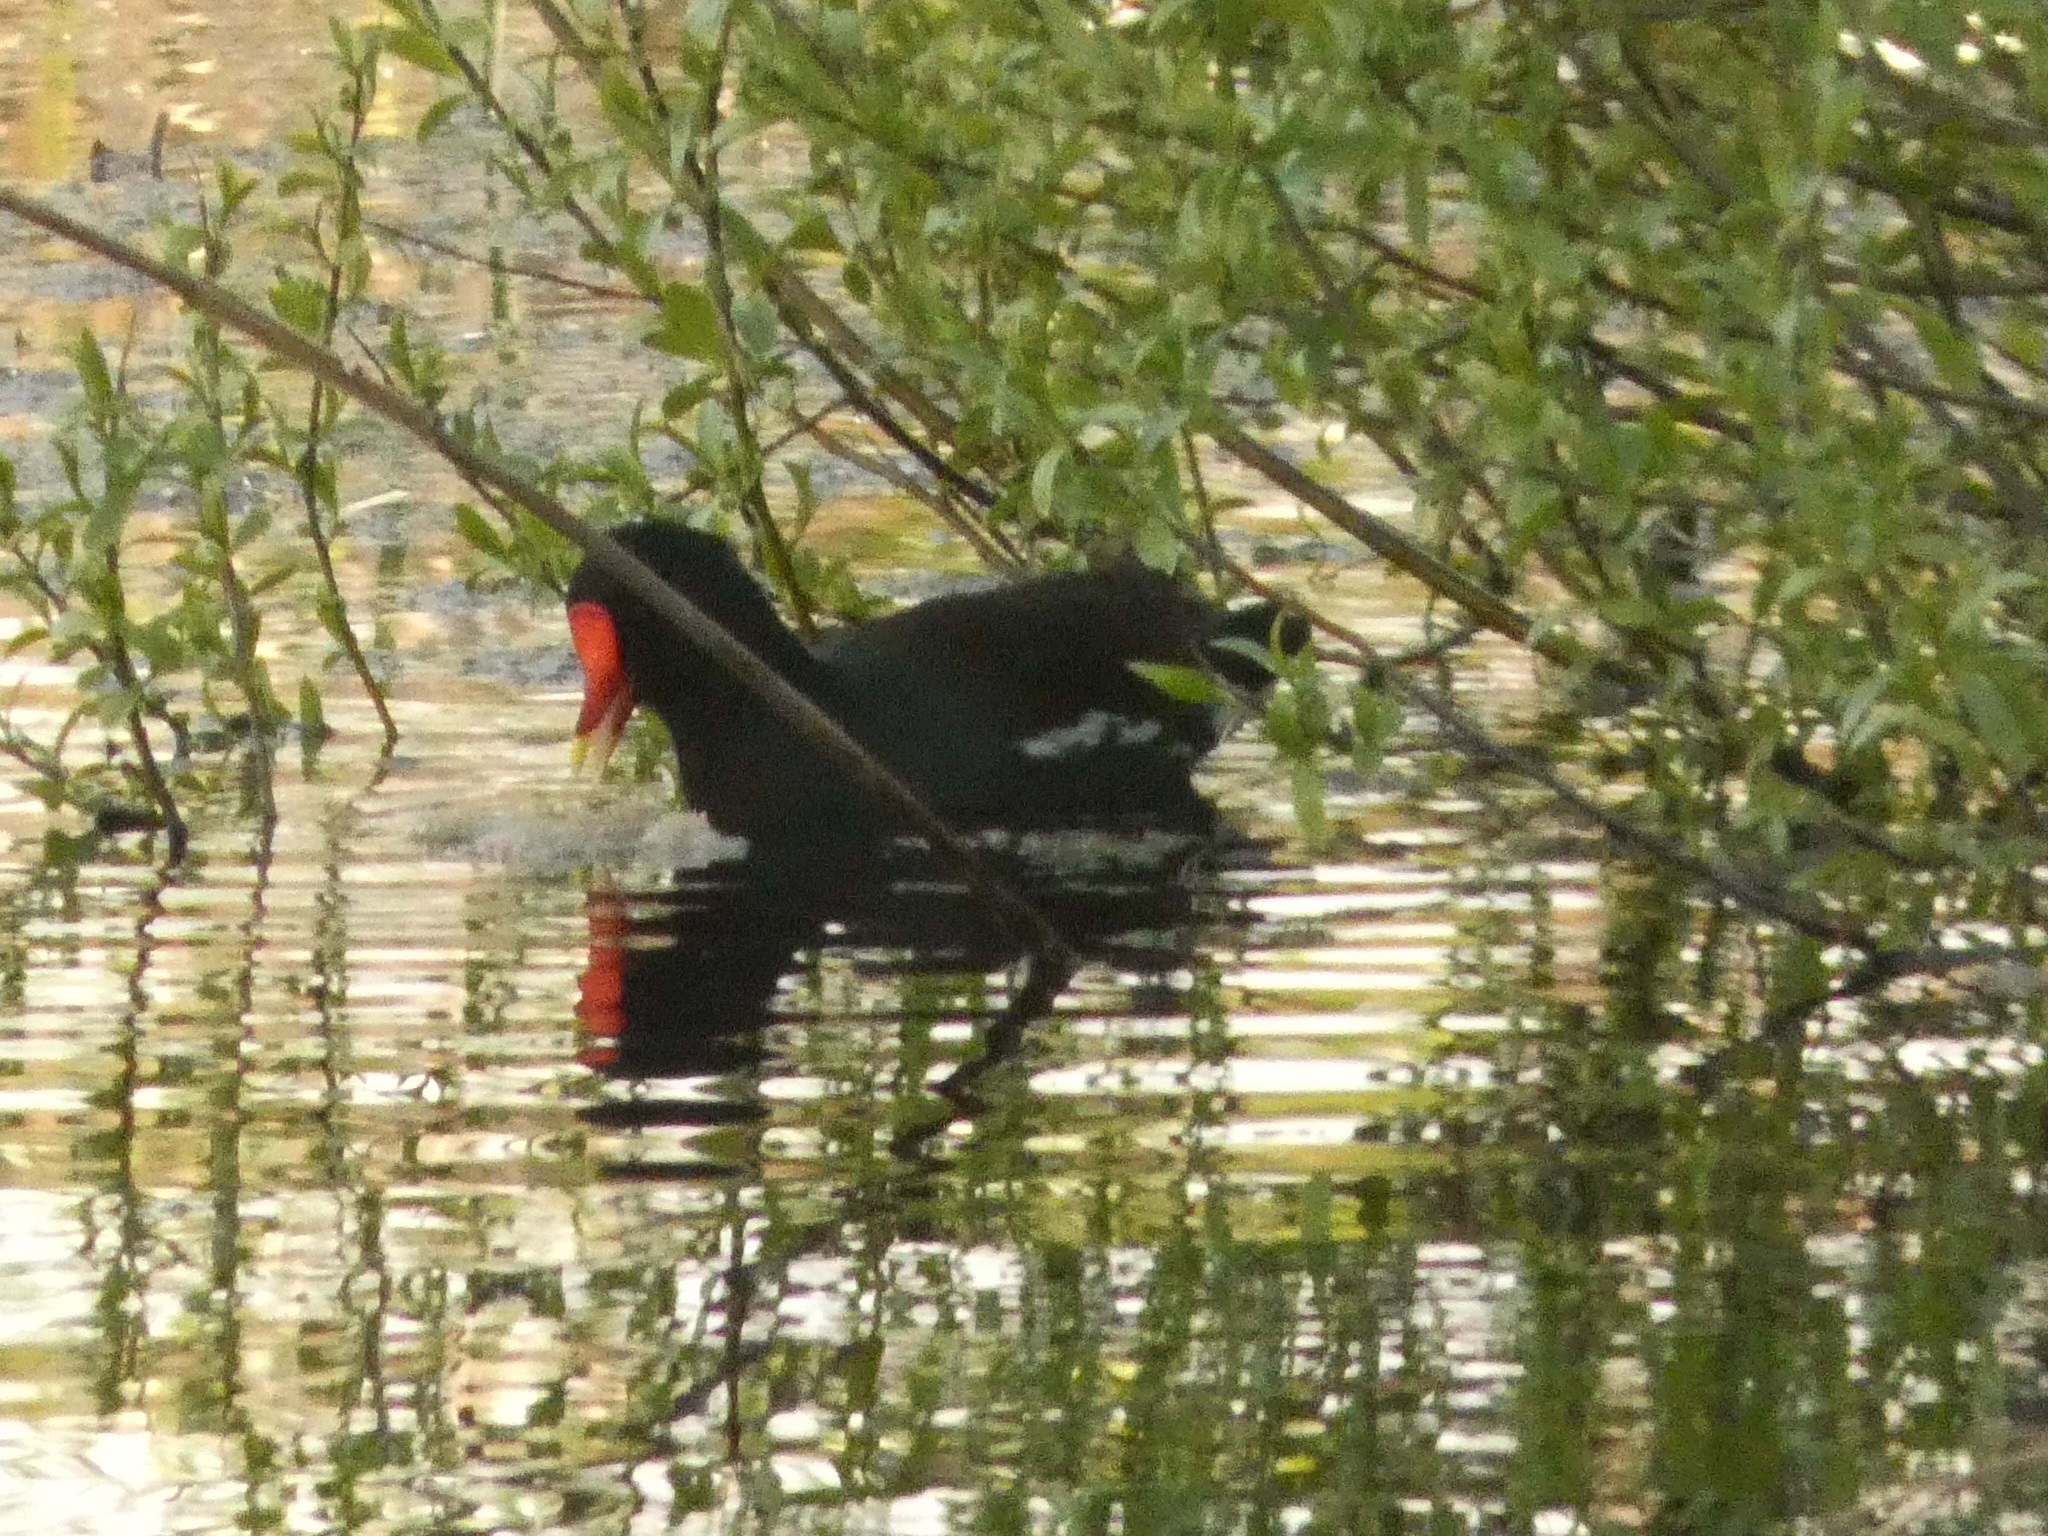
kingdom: Animalia
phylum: Chordata
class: Aves
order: Gruiformes
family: Rallidae
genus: Gallinula
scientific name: Gallinula chloropus
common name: Common moorhen
